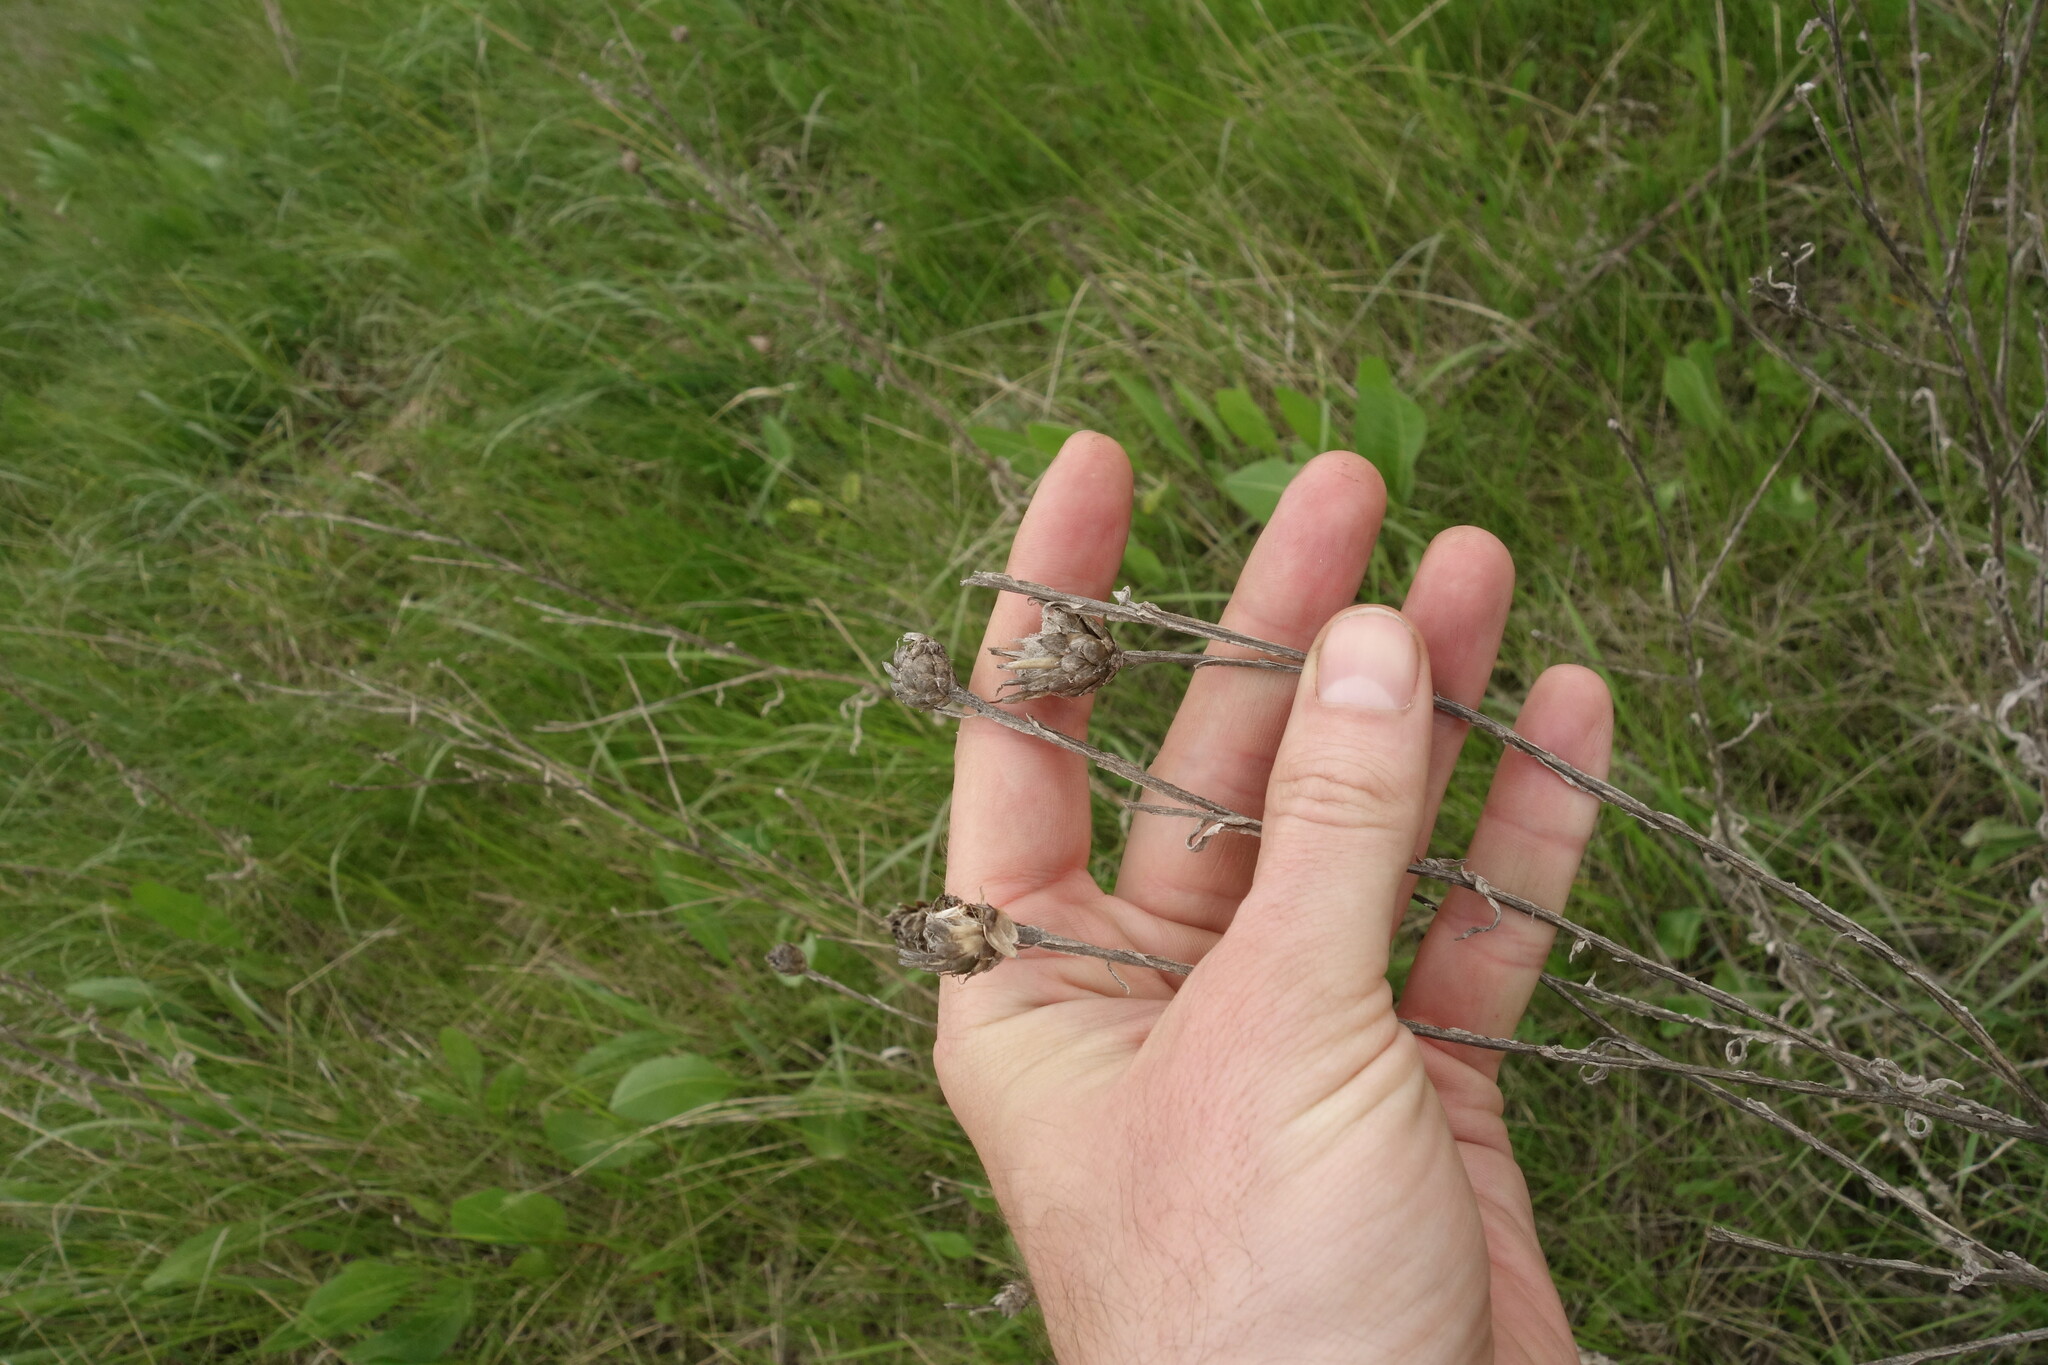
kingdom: Plantae
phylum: Tracheophyta
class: Magnoliopsida
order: Asterales
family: Asteraceae
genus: Centaurea
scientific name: Centaurea glastifolia
